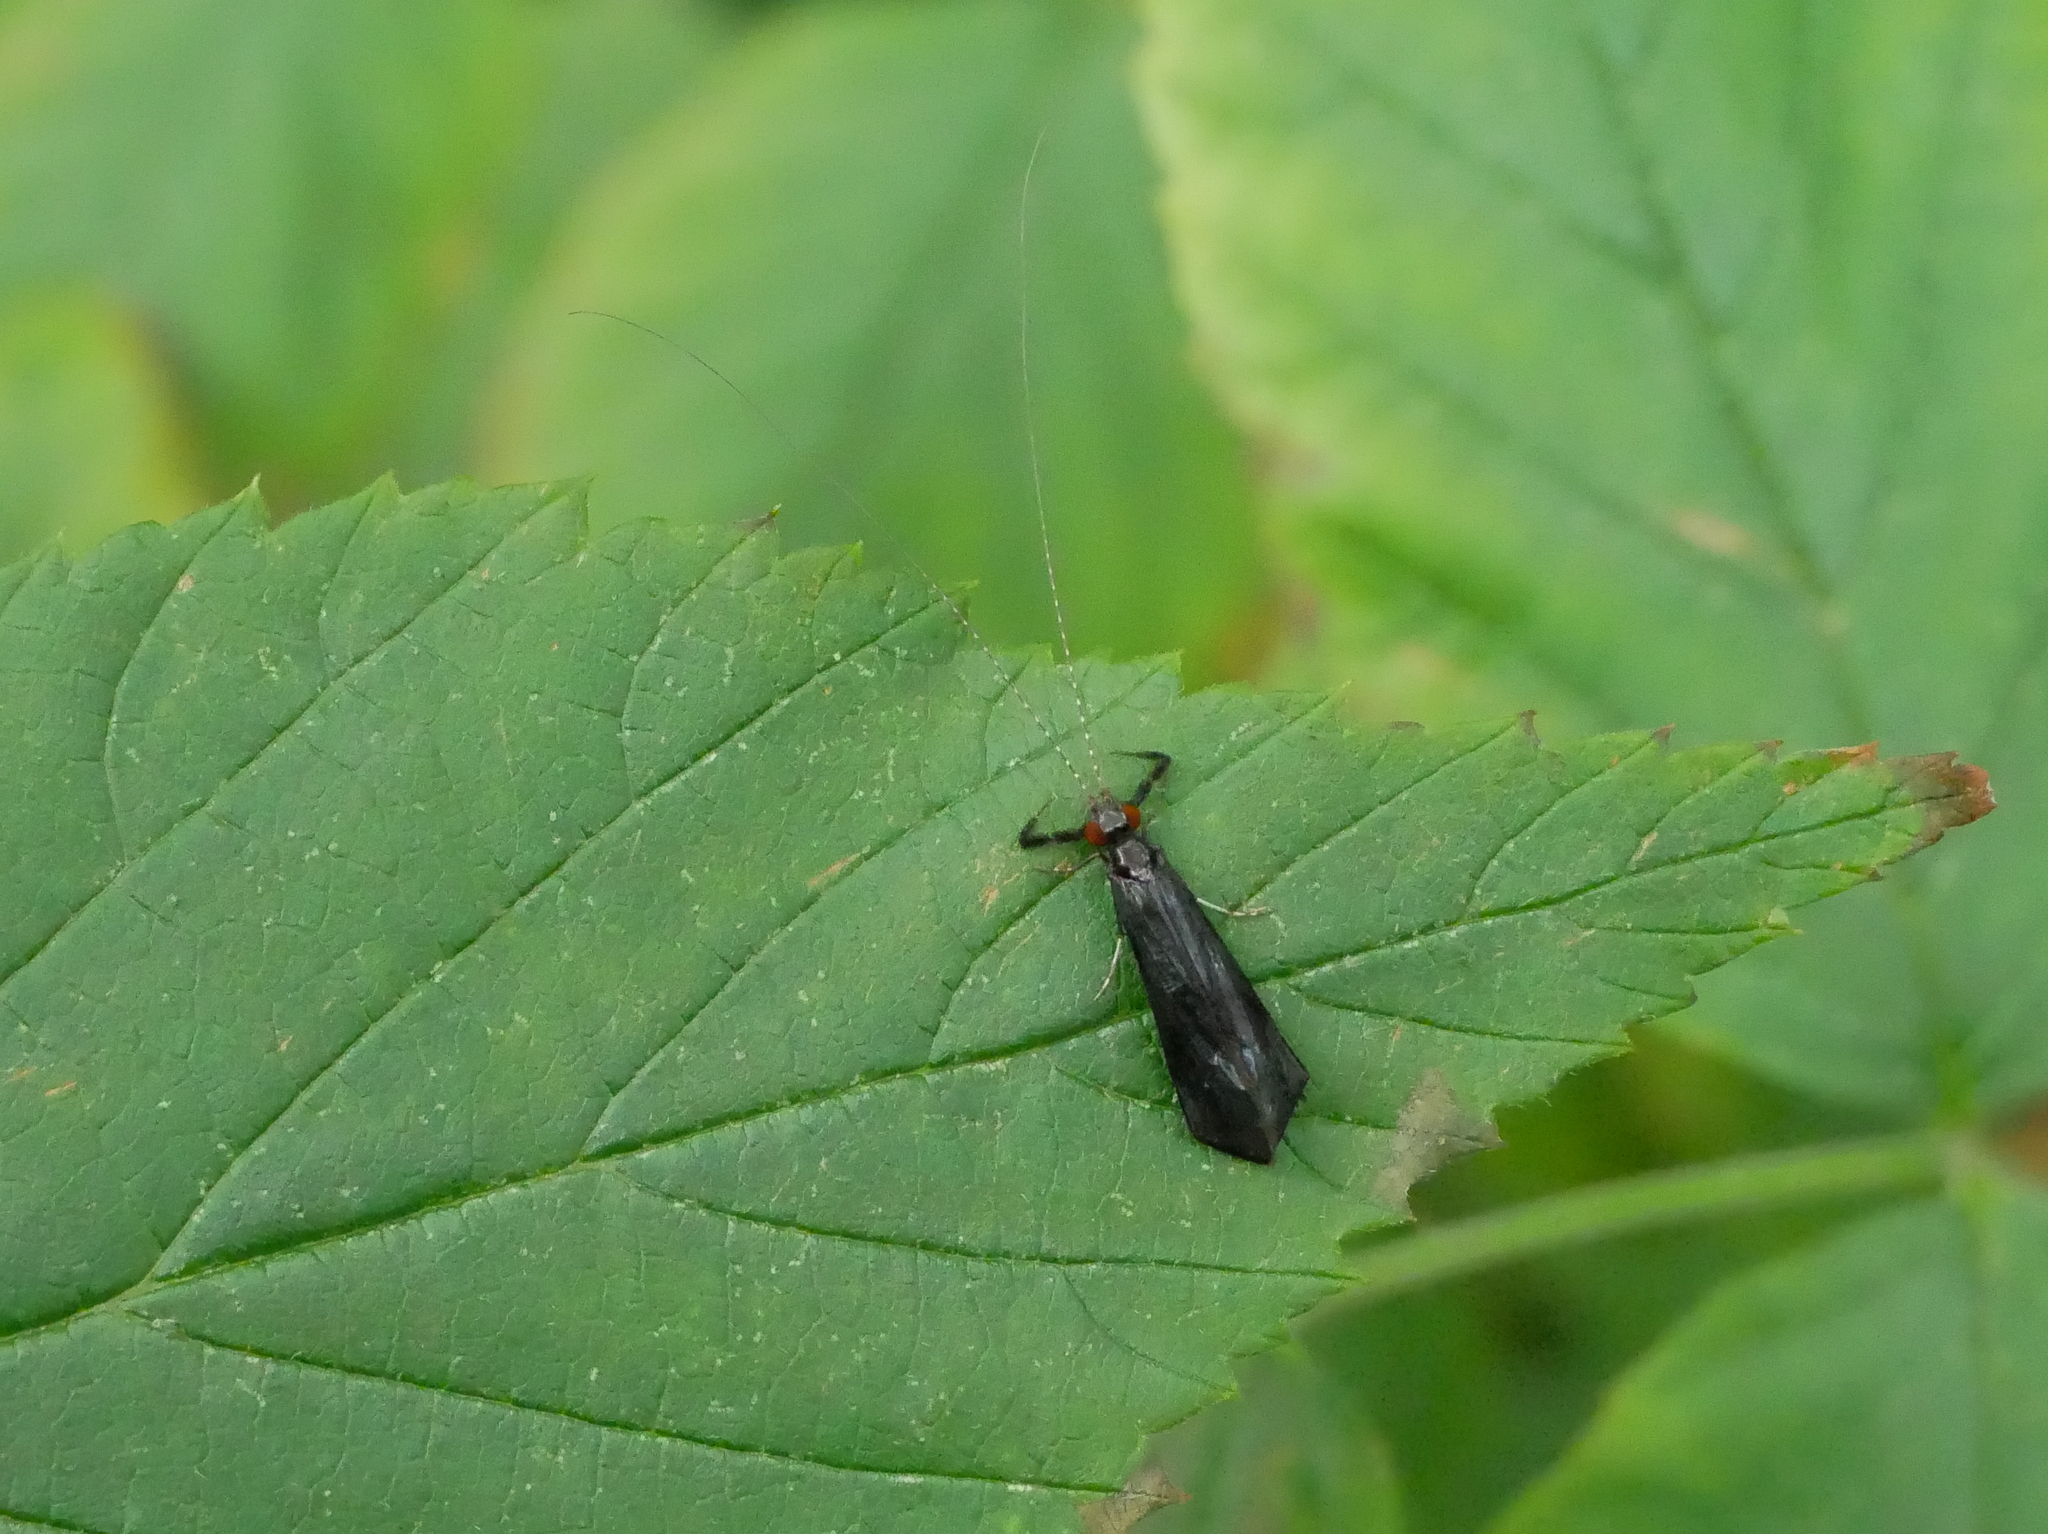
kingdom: Animalia
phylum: Arthropoda
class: Insecta
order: Trichoptera
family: Leptoceridae
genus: Mystacides
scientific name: Mystacides niger
